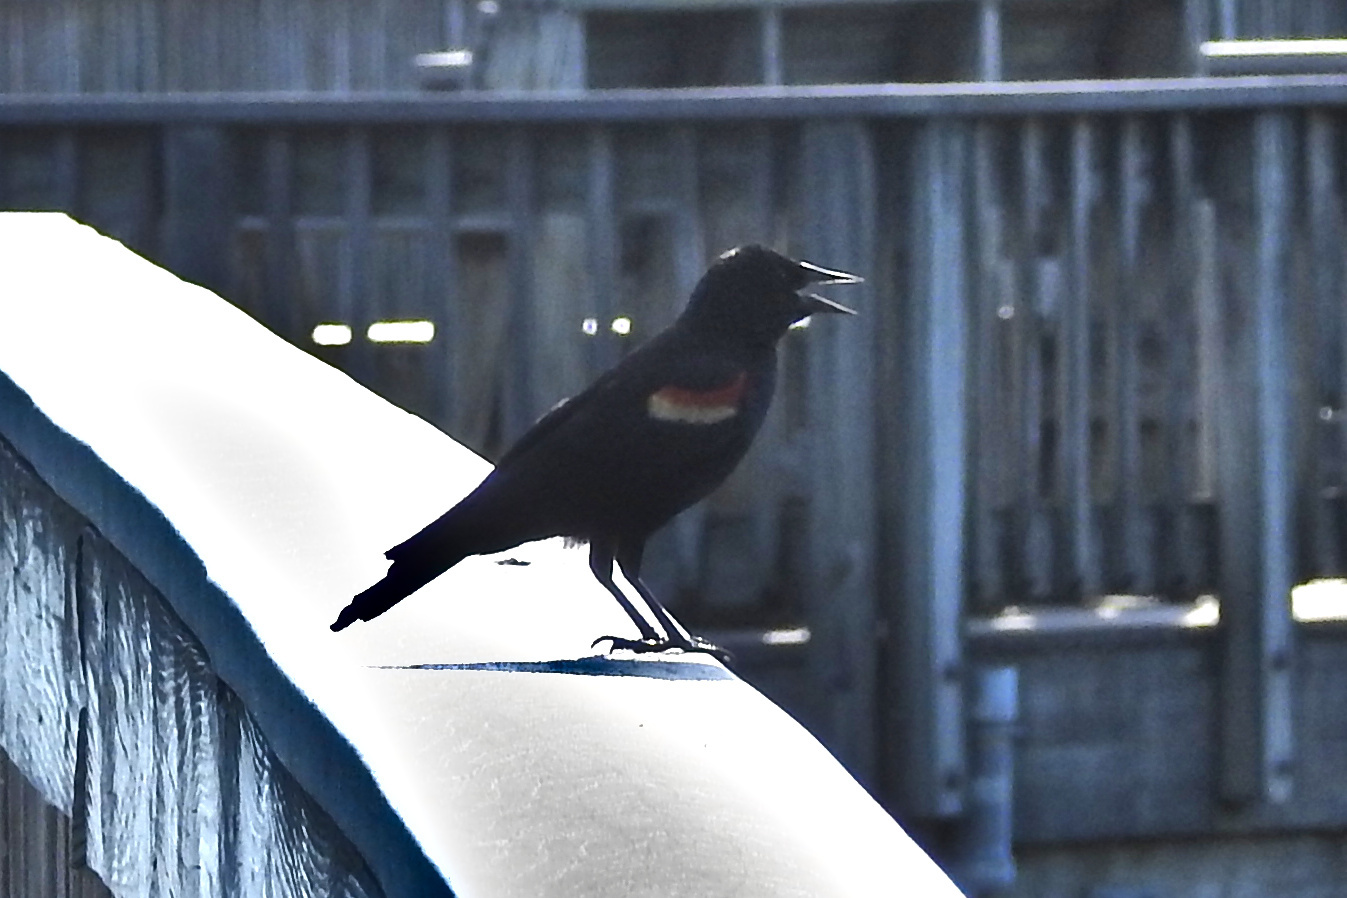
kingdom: Animalia
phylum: Chordata
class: Aves
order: Passeriformes
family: Icteridae
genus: Agelaius
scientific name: Agelaius phoeniceus
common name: Red-winged blackbird
